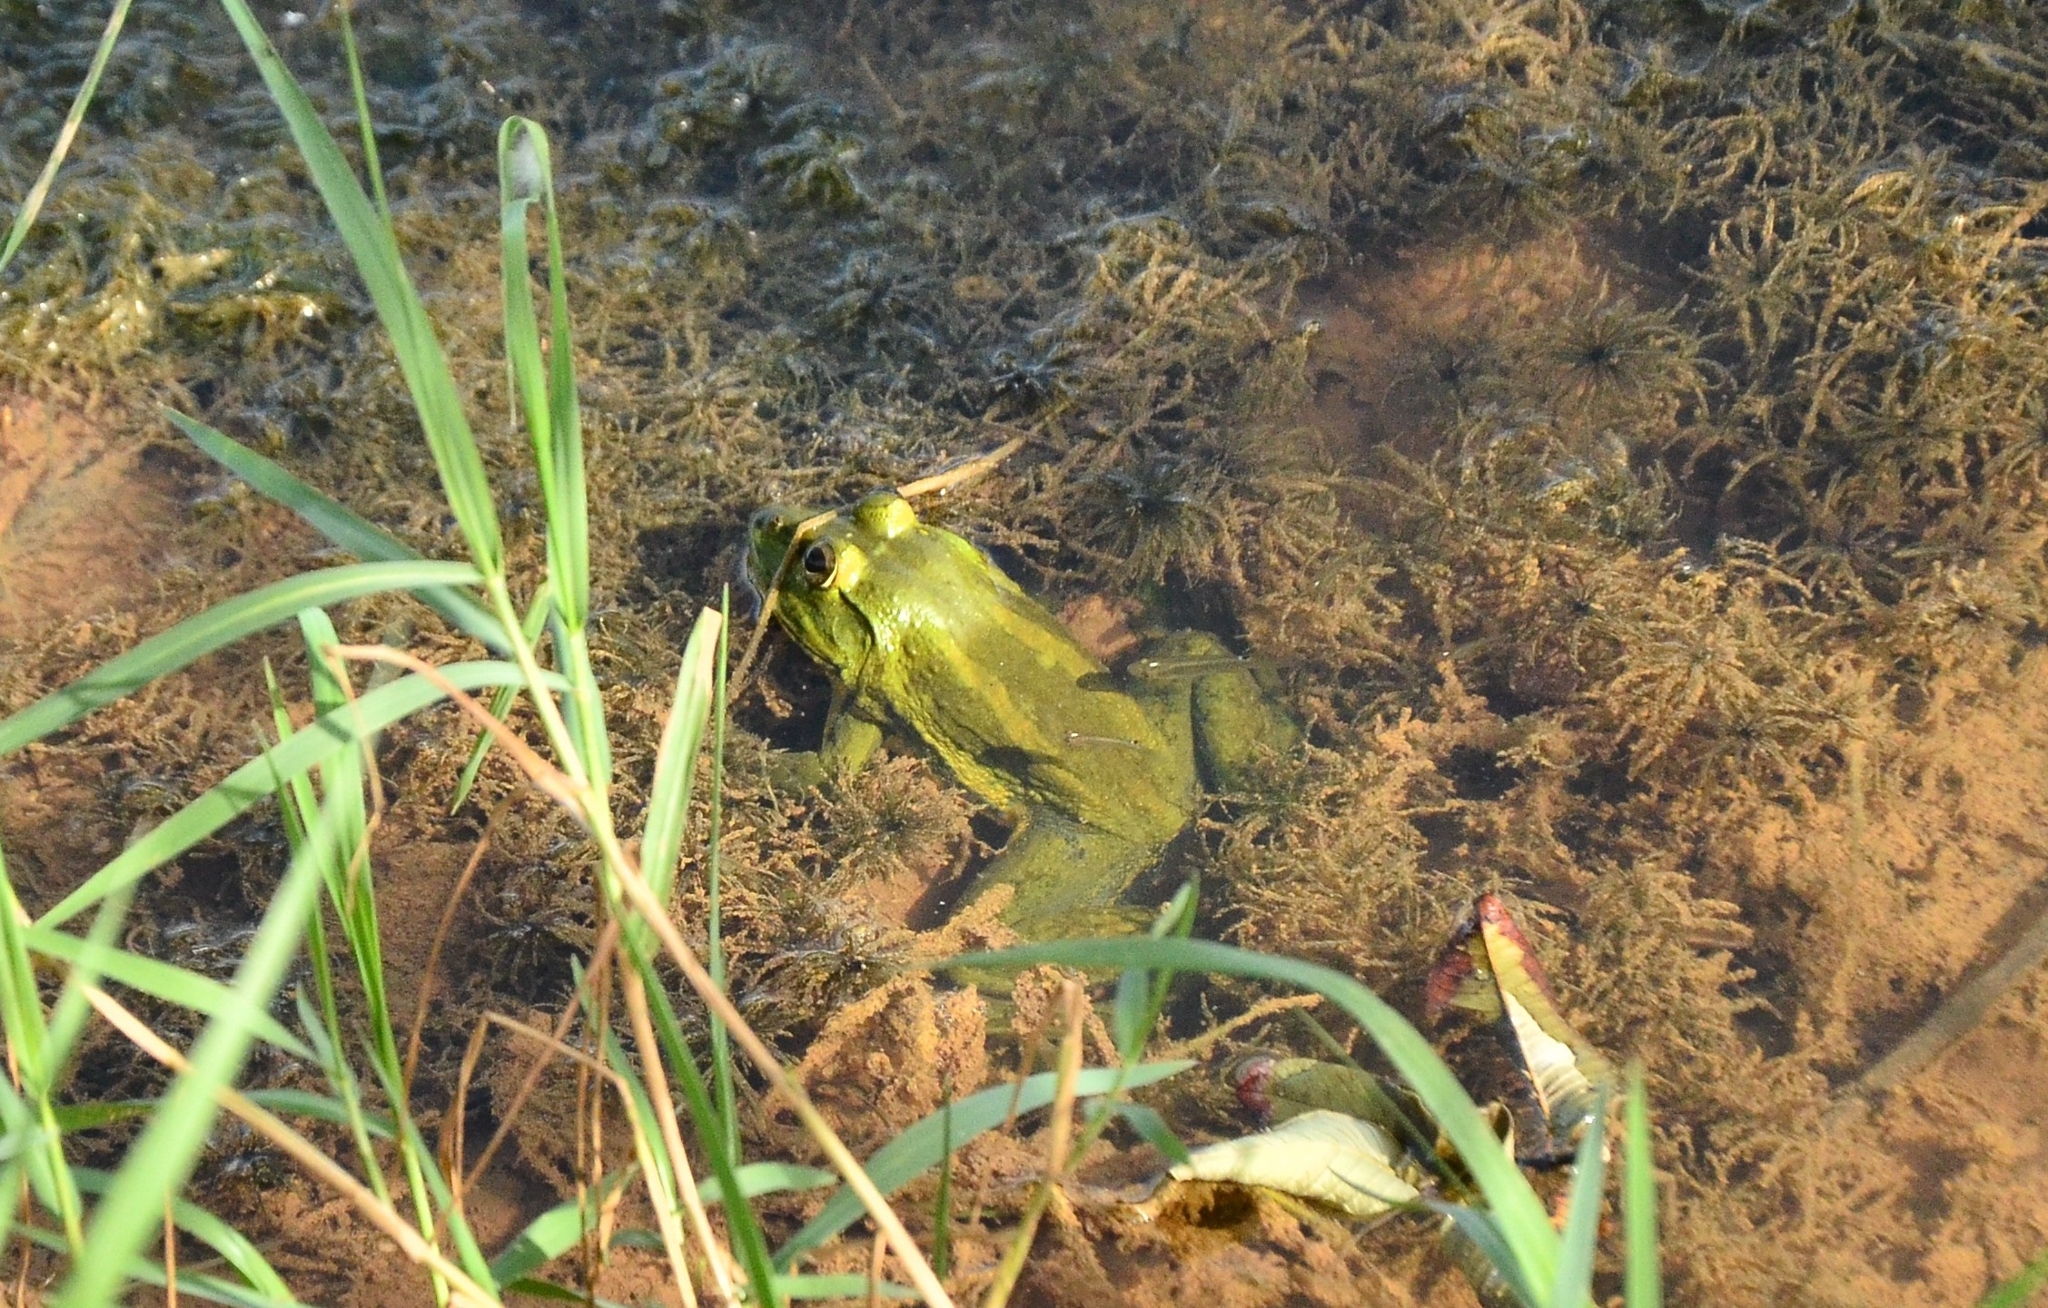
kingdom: Animalia
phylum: Chordata
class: Amphibia
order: Anura
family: Dicroglossidae
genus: Euphlyctis
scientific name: Euphlyctis karaavali
